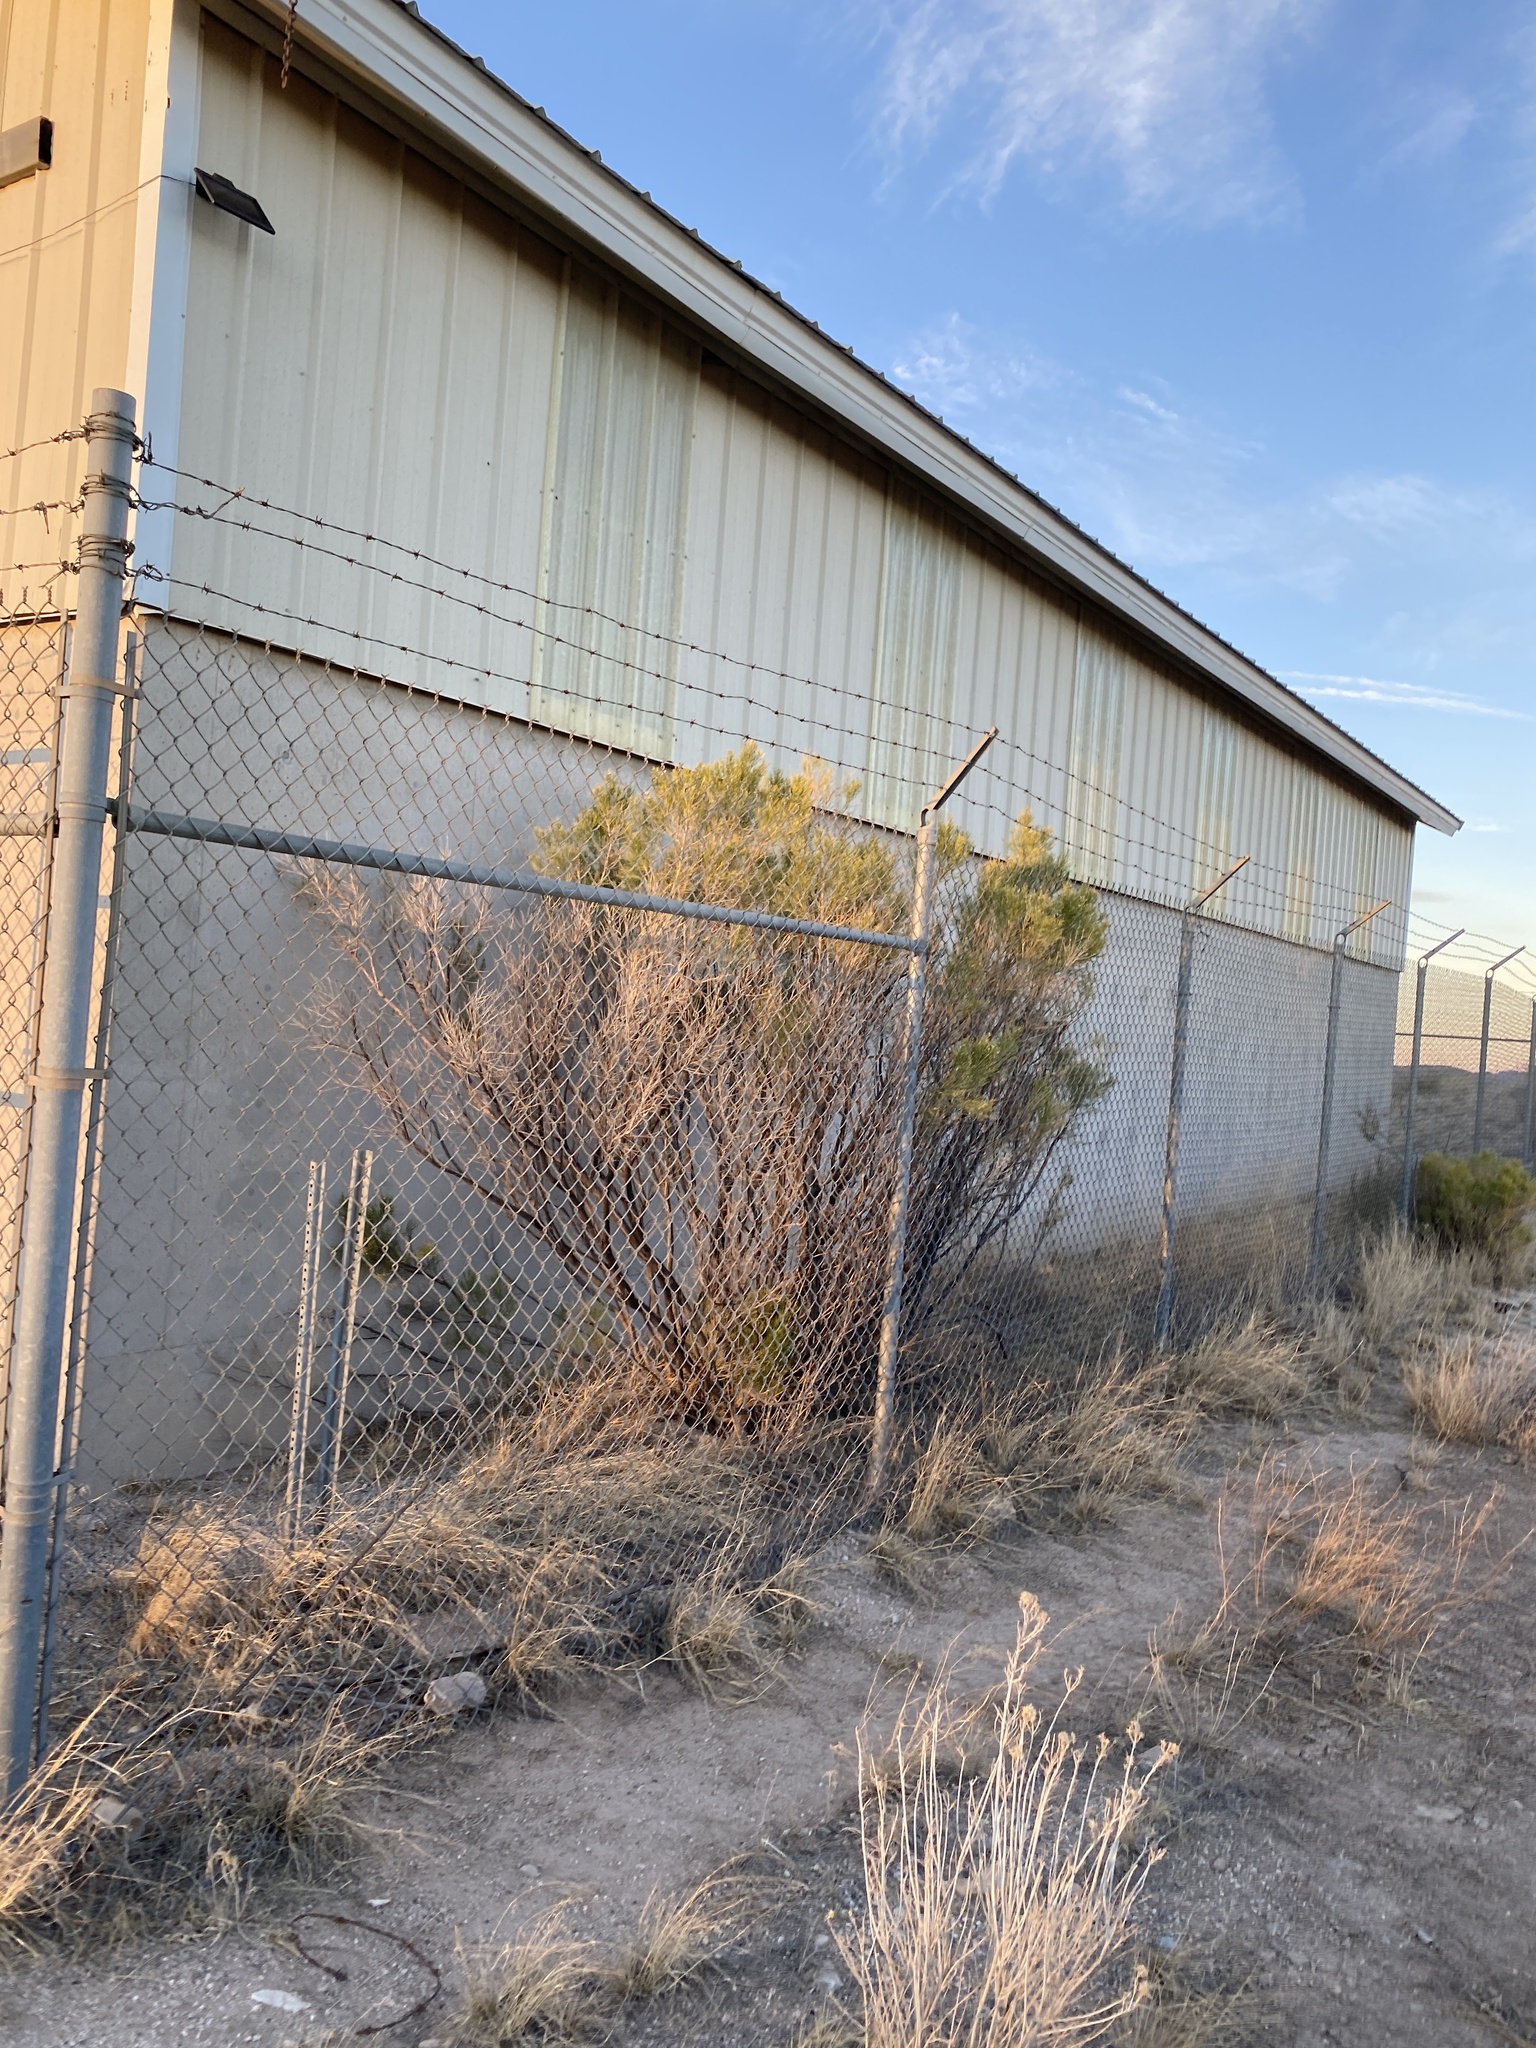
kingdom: Plantae
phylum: Tracheophyta
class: Magnoliopsida
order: Asterales
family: Asteraceae
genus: Baccharis
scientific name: Baccharis sarothroides
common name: Desert-broom
